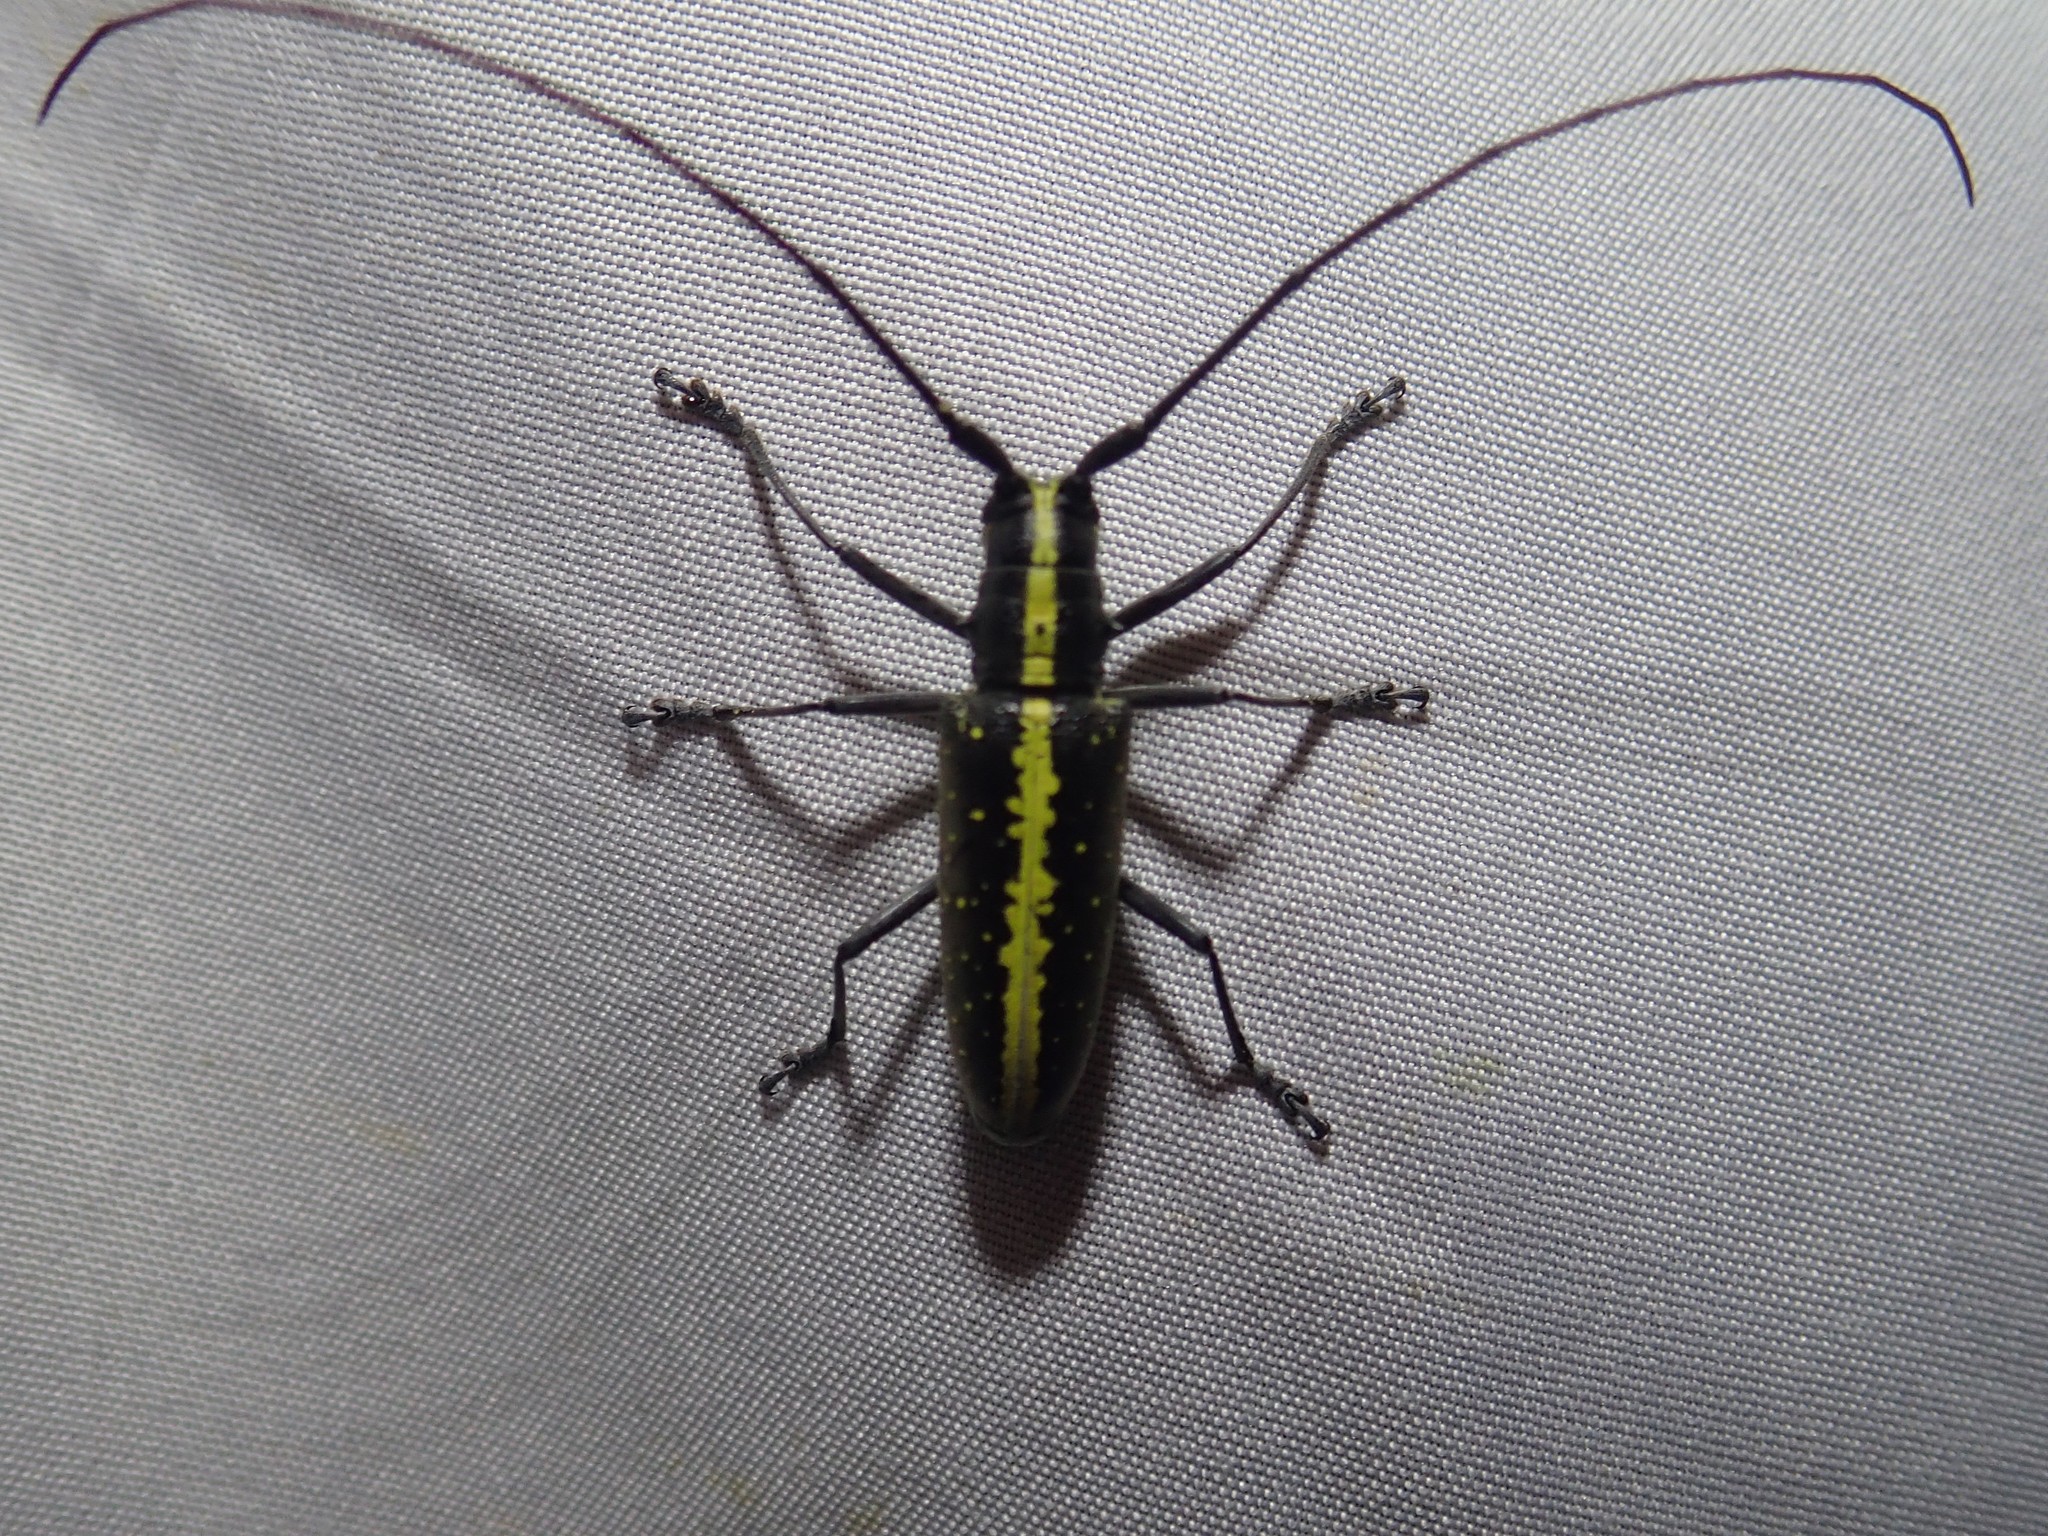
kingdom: Animalia
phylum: Arthropoda
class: Insecta
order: Coleoptera
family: Cerambycidae
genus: Taeniotes
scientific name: Taeniotes scalatus
